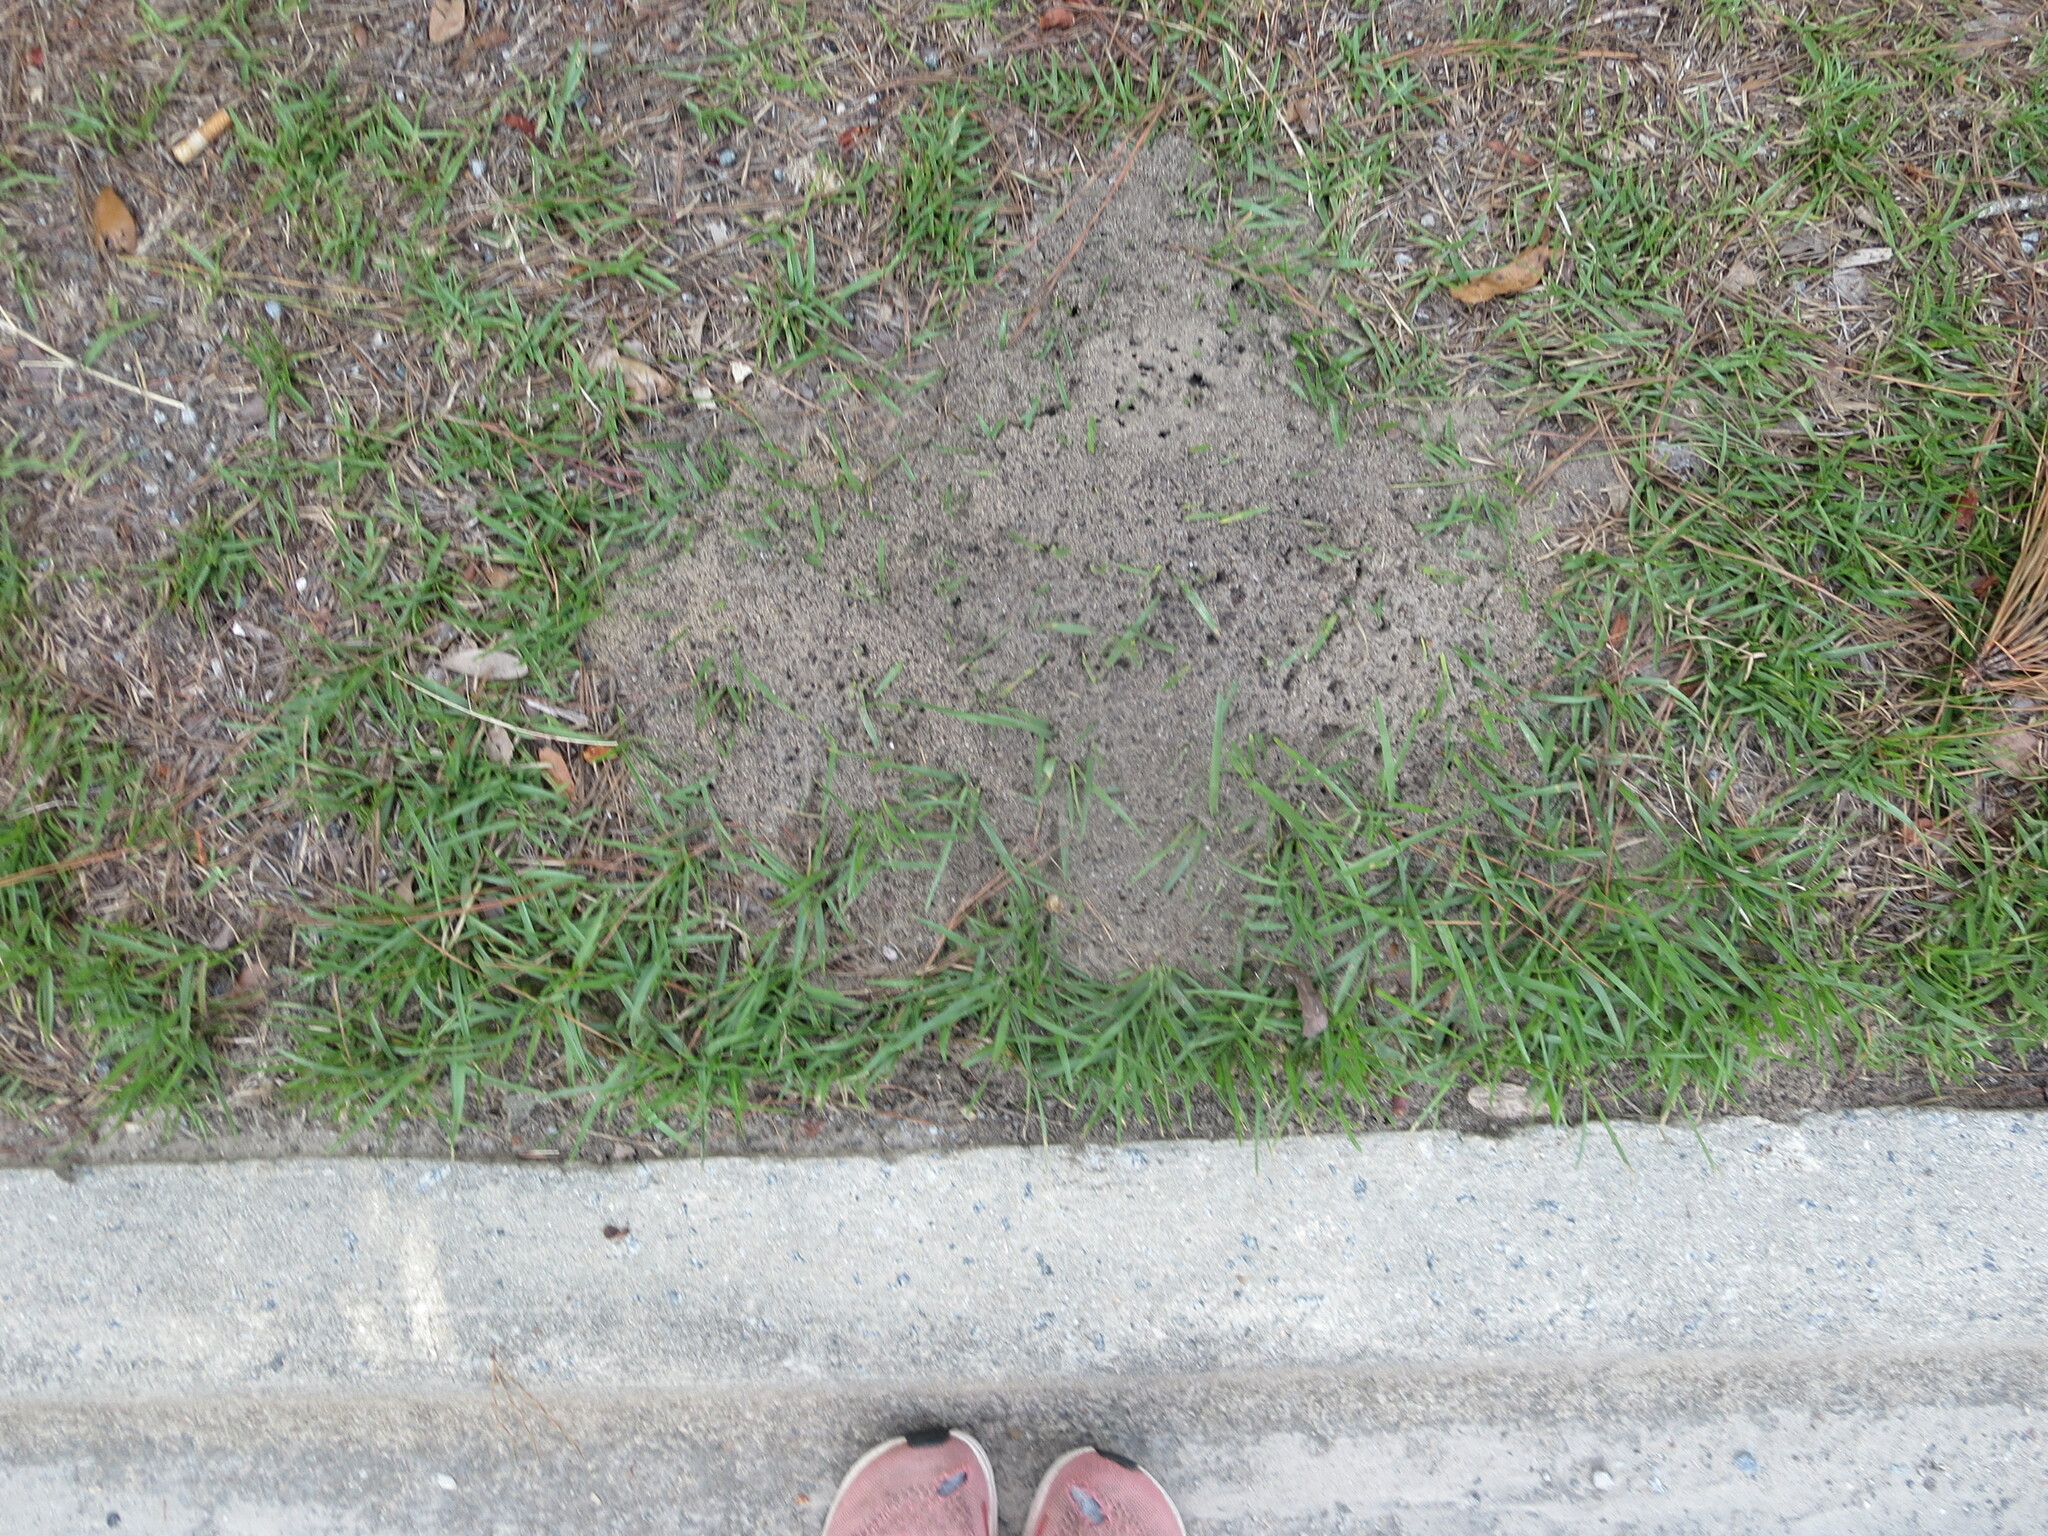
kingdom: Animalia
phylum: Arthropoda
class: Insecta
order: Hymenoptera
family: Formicidae
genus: Solenopsis
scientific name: Solenopsis invicta
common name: Red imported fire ant
